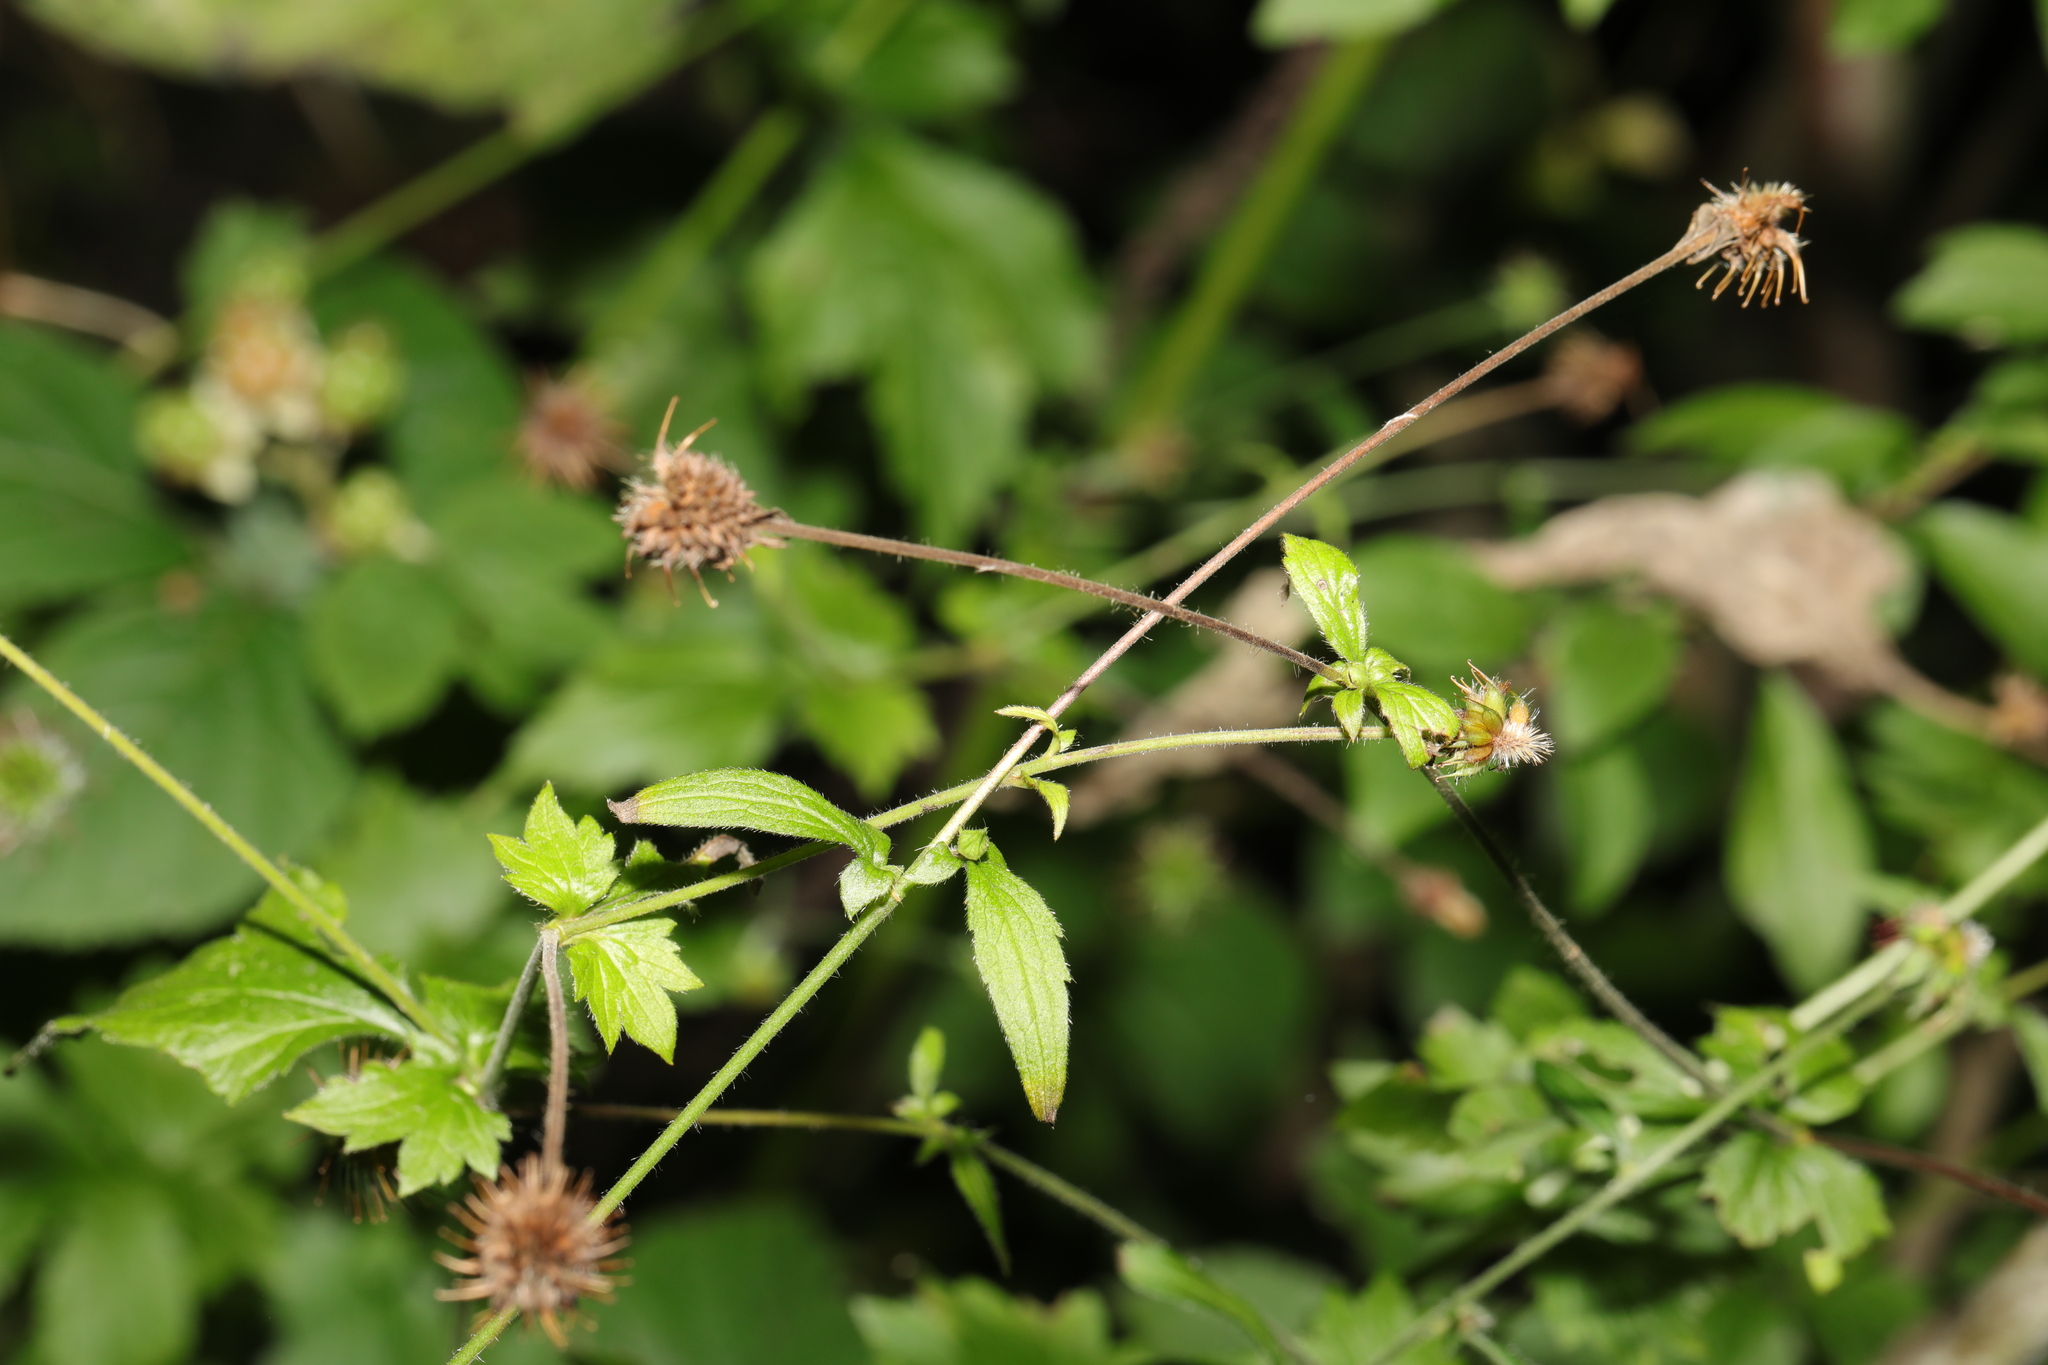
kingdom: Plantae
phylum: Tracheophyta
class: Magnoliopsida
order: Rosales
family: Rosaceae
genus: Geum
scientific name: Geum urbanum
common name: Wood avens
